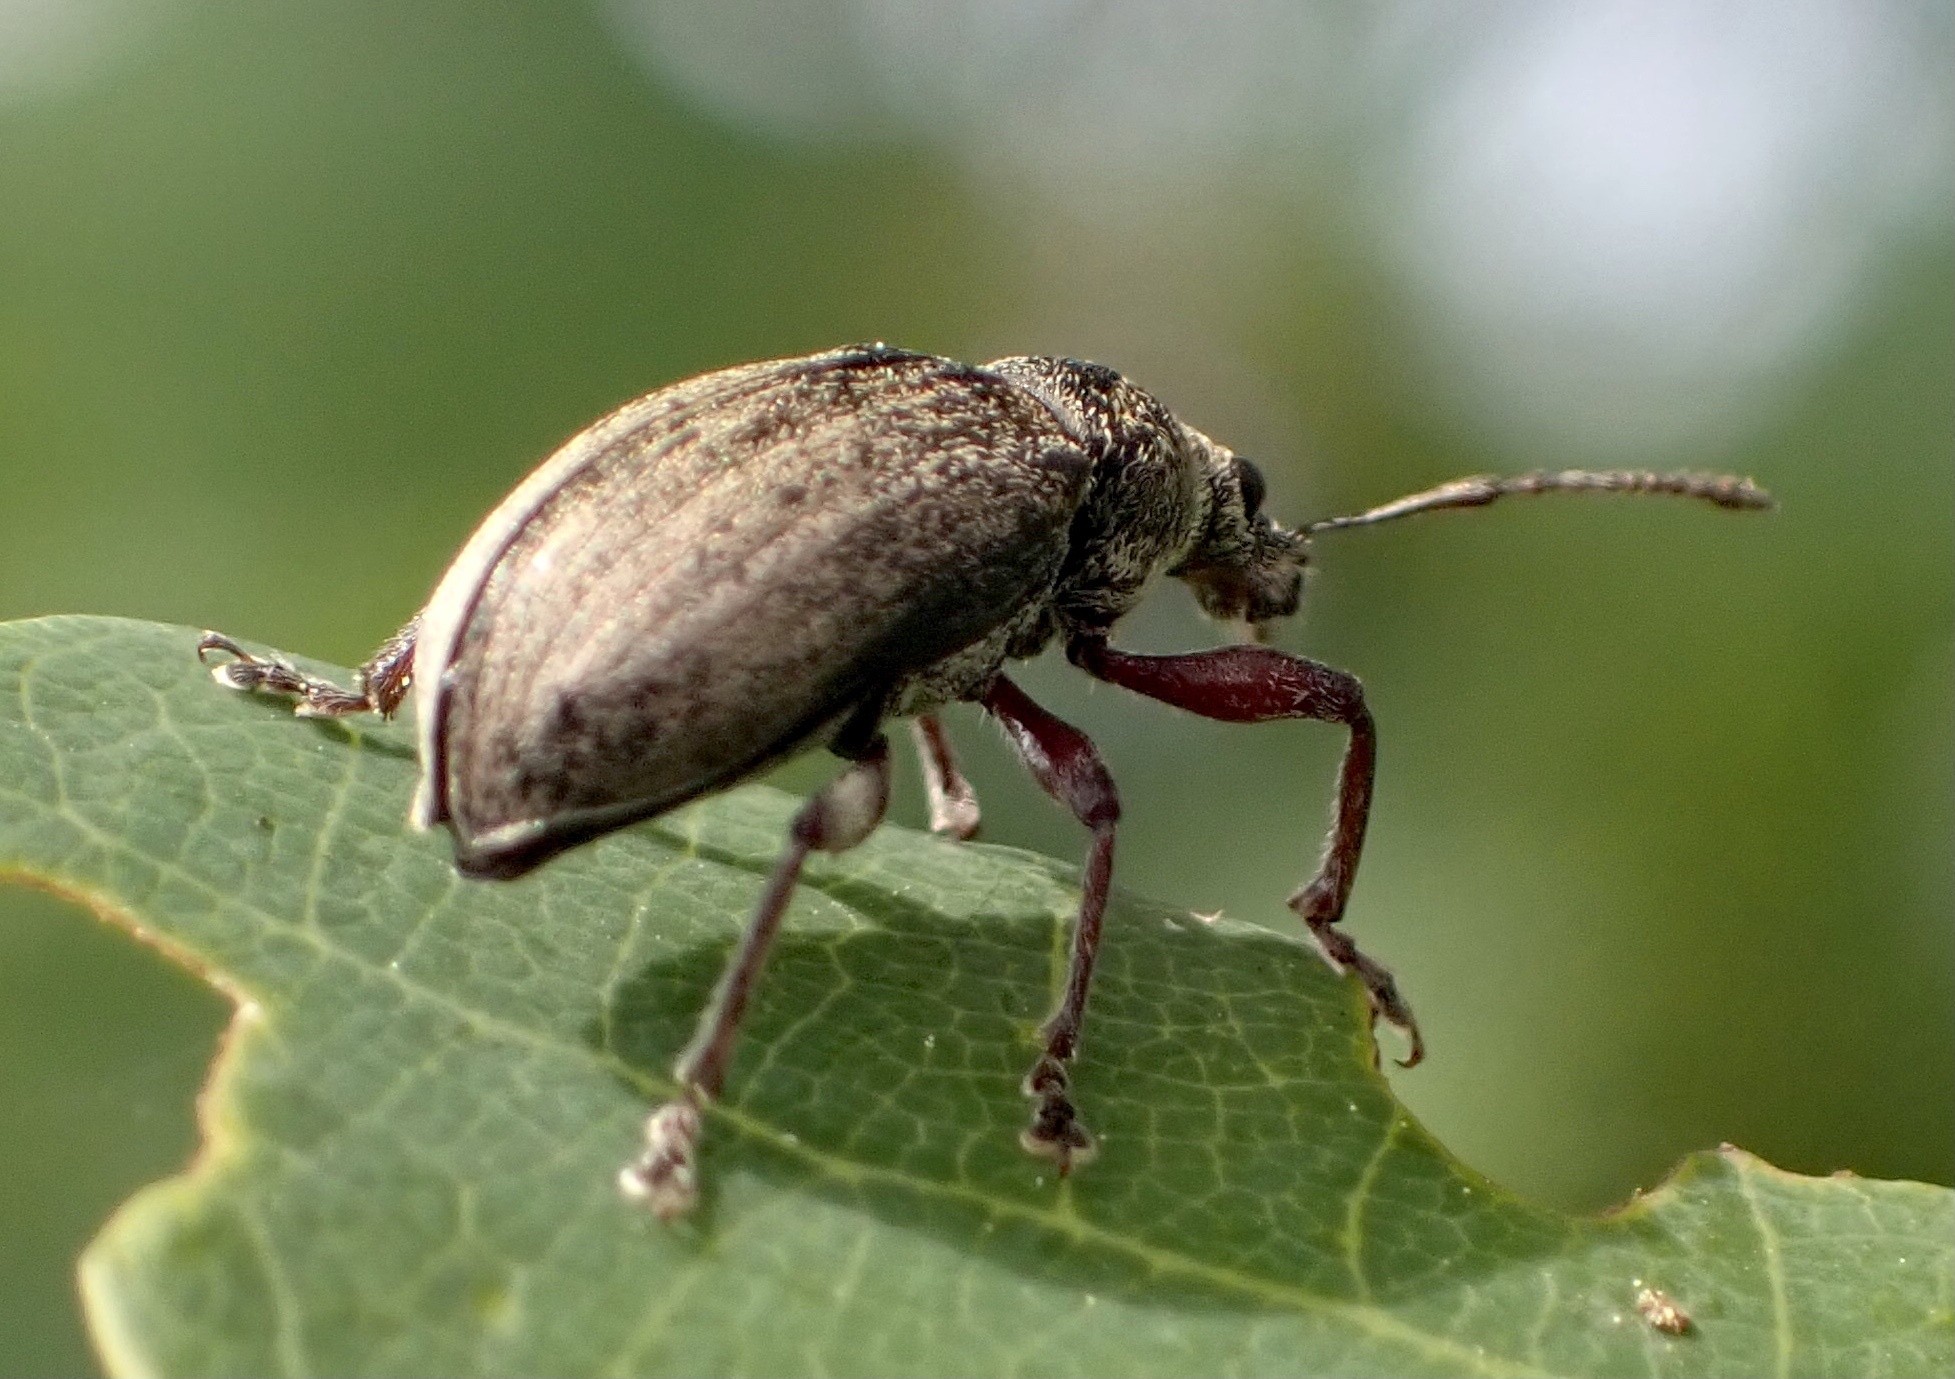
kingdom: Animalia
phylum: Arthropoda
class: Insecta
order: Coleoptera
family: Curculionidae
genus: Phyllobius
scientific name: Phyllobius pyri
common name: Common leaf weevil
